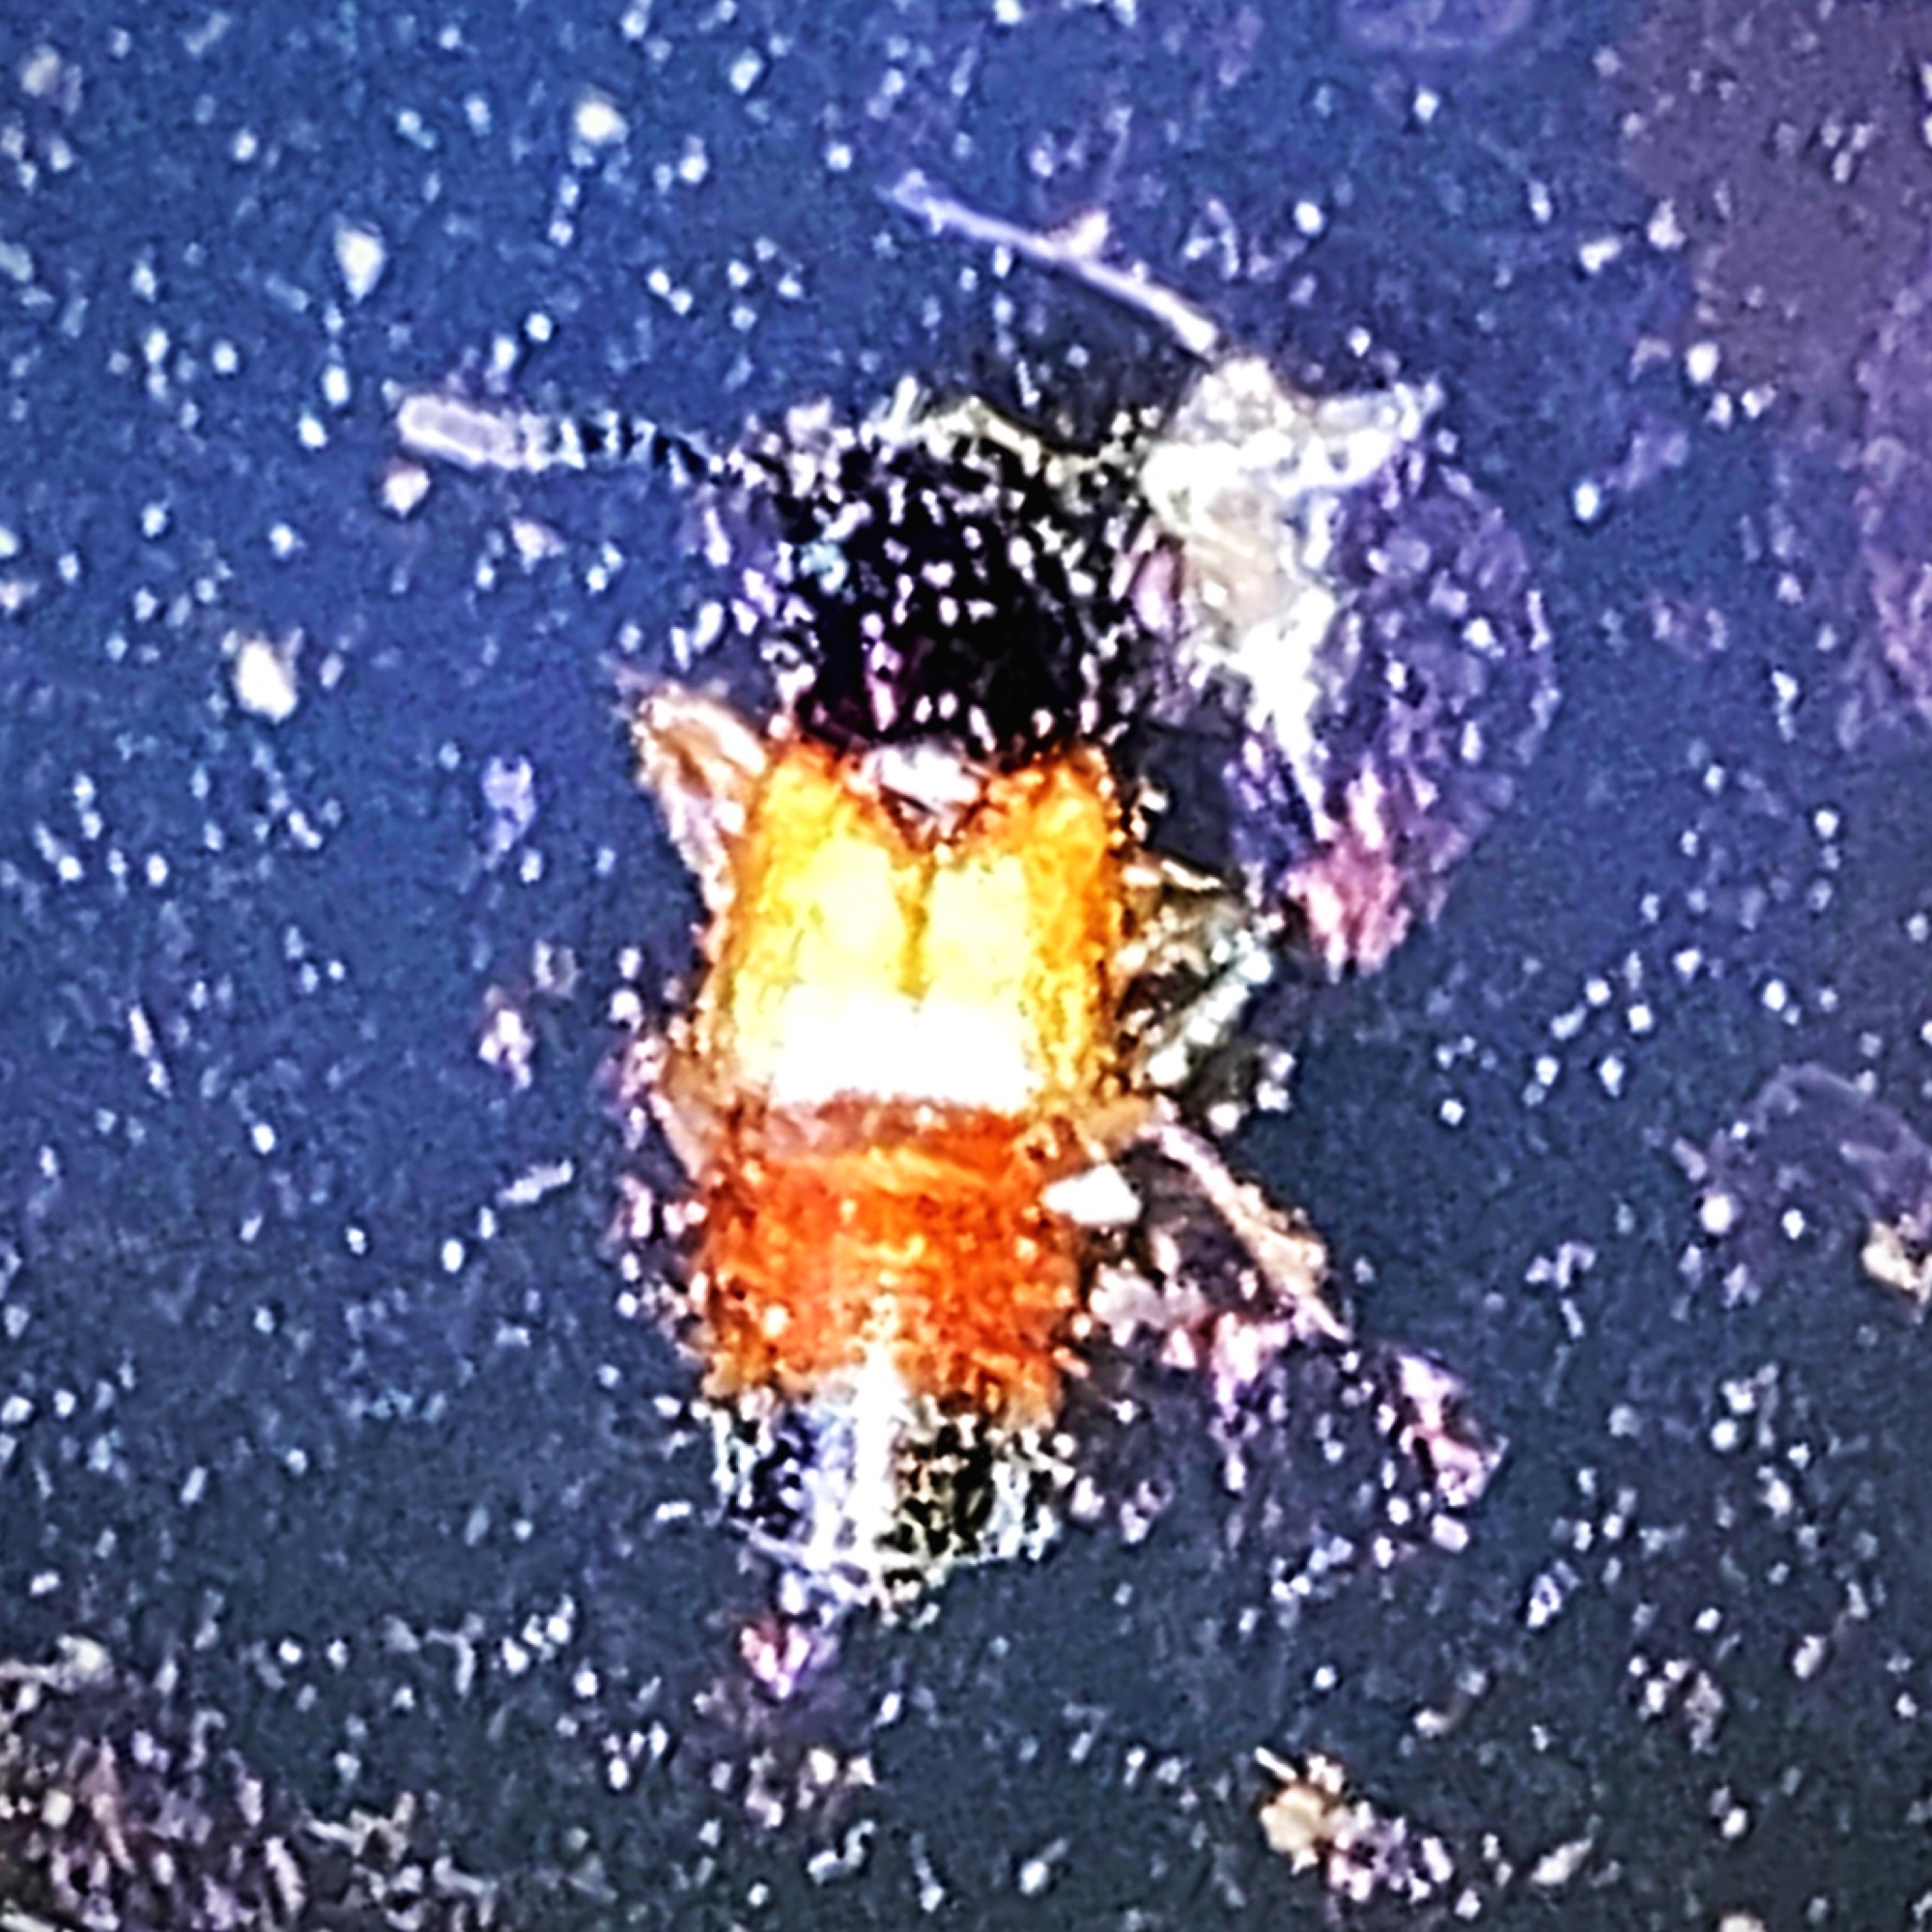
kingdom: Animalia
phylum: Arthropoda
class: Insecta
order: Coleoptera
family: Staphylinidae
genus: Belonuchus
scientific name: Belonuchus rufipennis
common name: Large rove beetle
